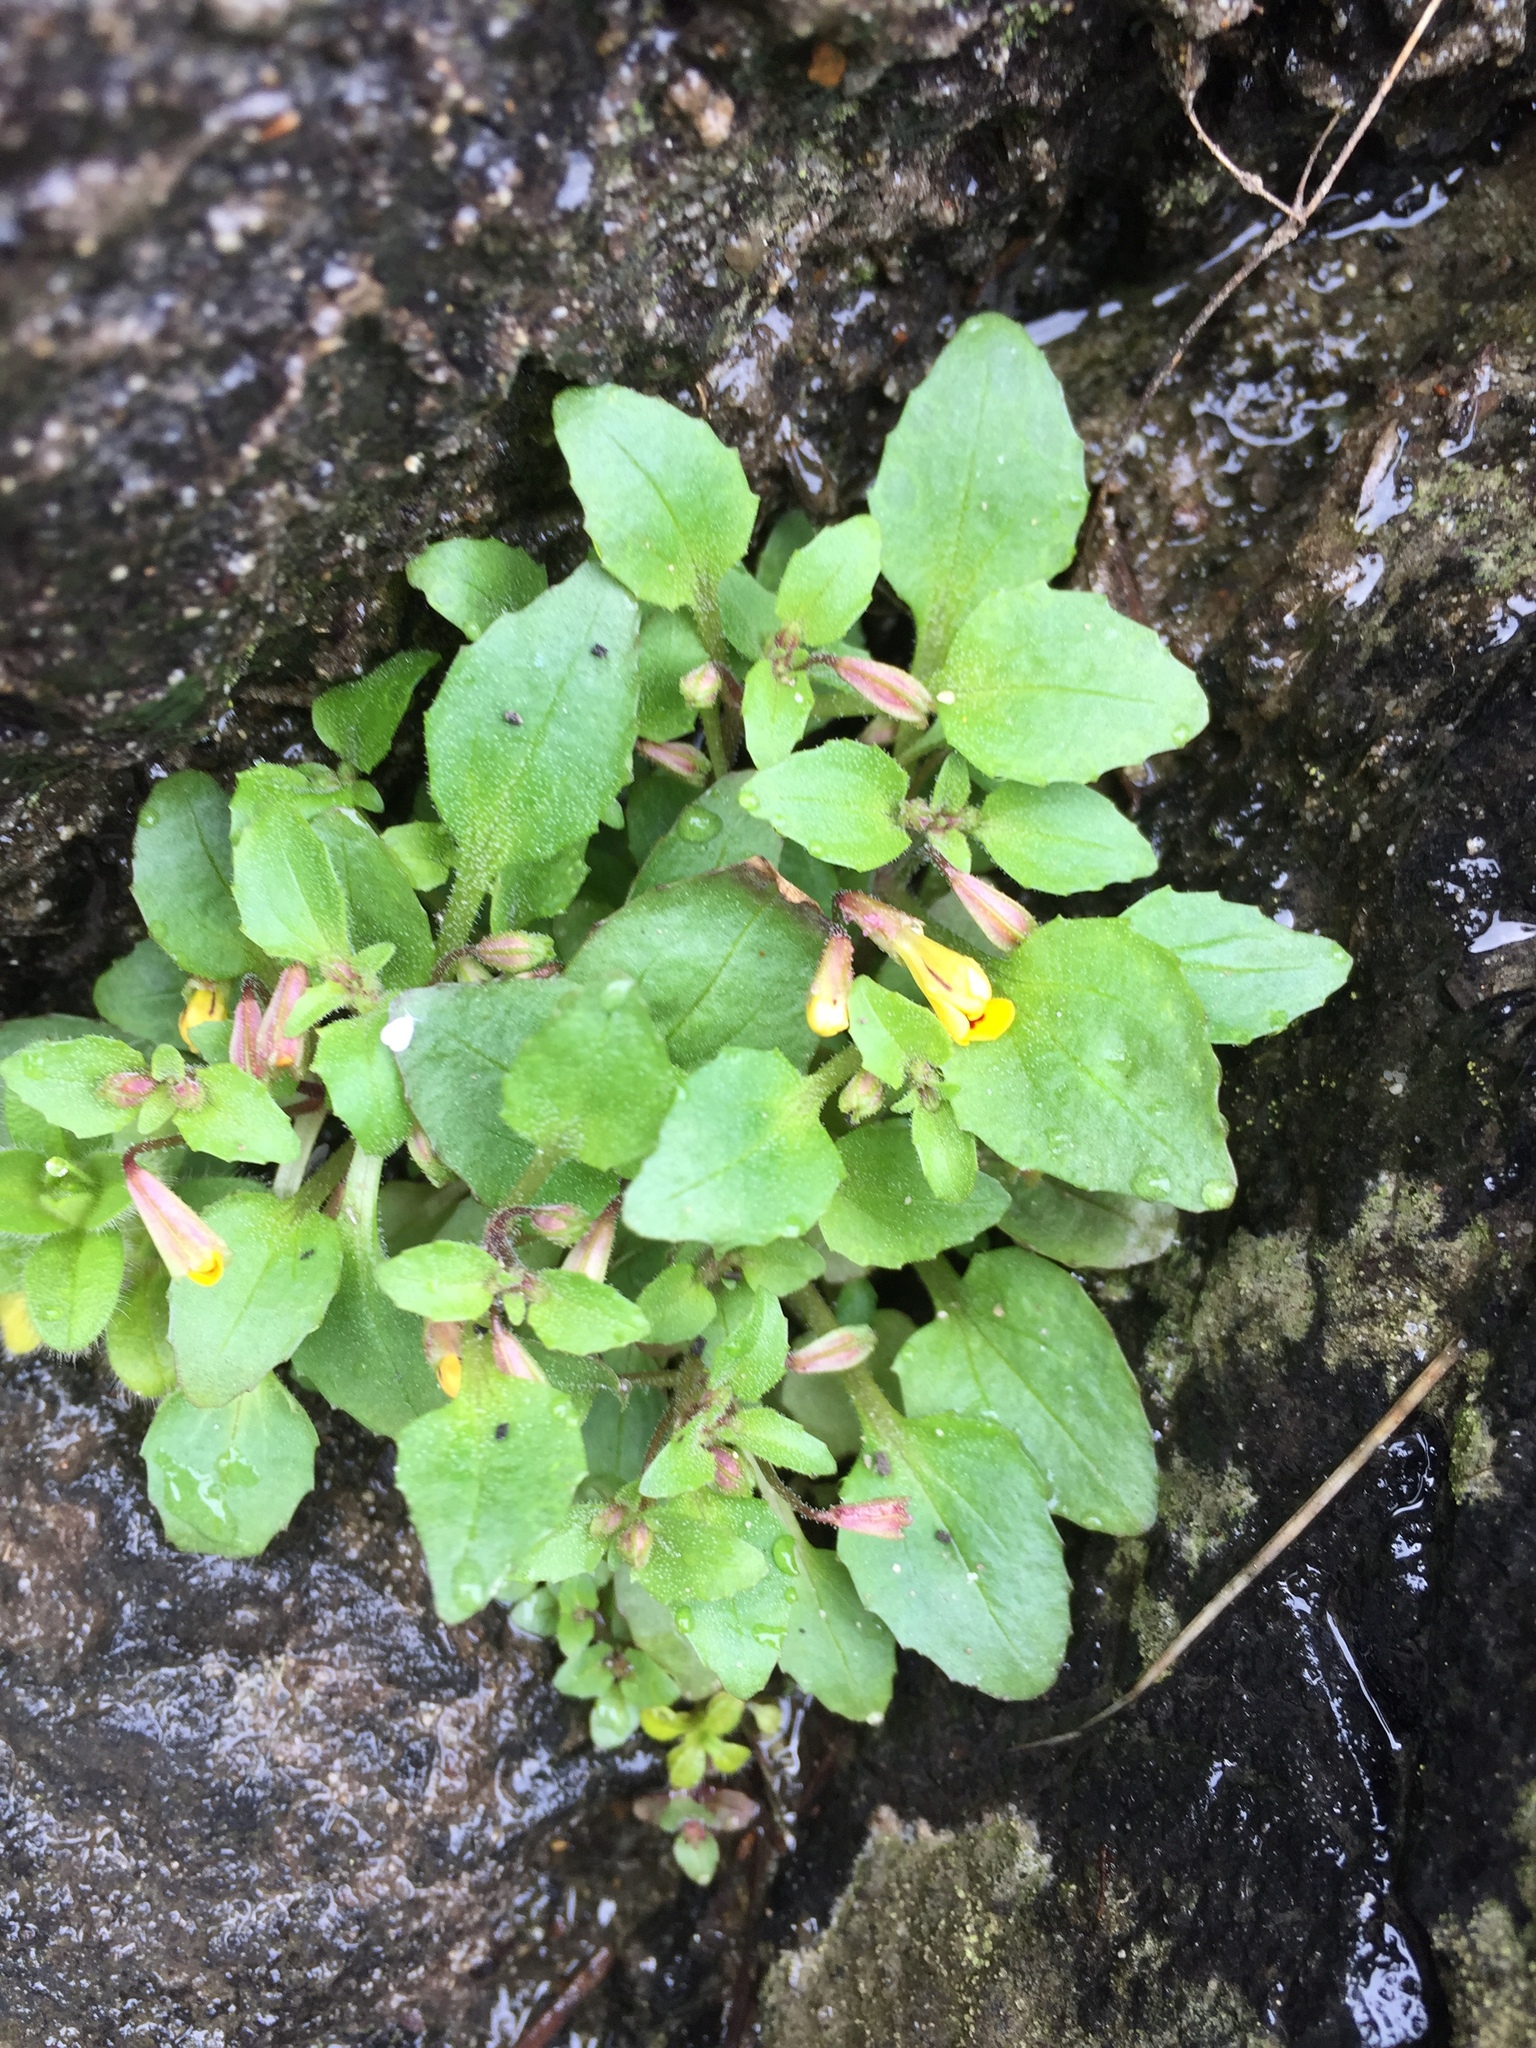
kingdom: Plantae
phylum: Tracheophyta
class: Magnoliopsida
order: Lamiales
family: Phrymaceae
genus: Erythranthe
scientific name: Erythranthe alsinoides
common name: Chickweed monkeyflower
